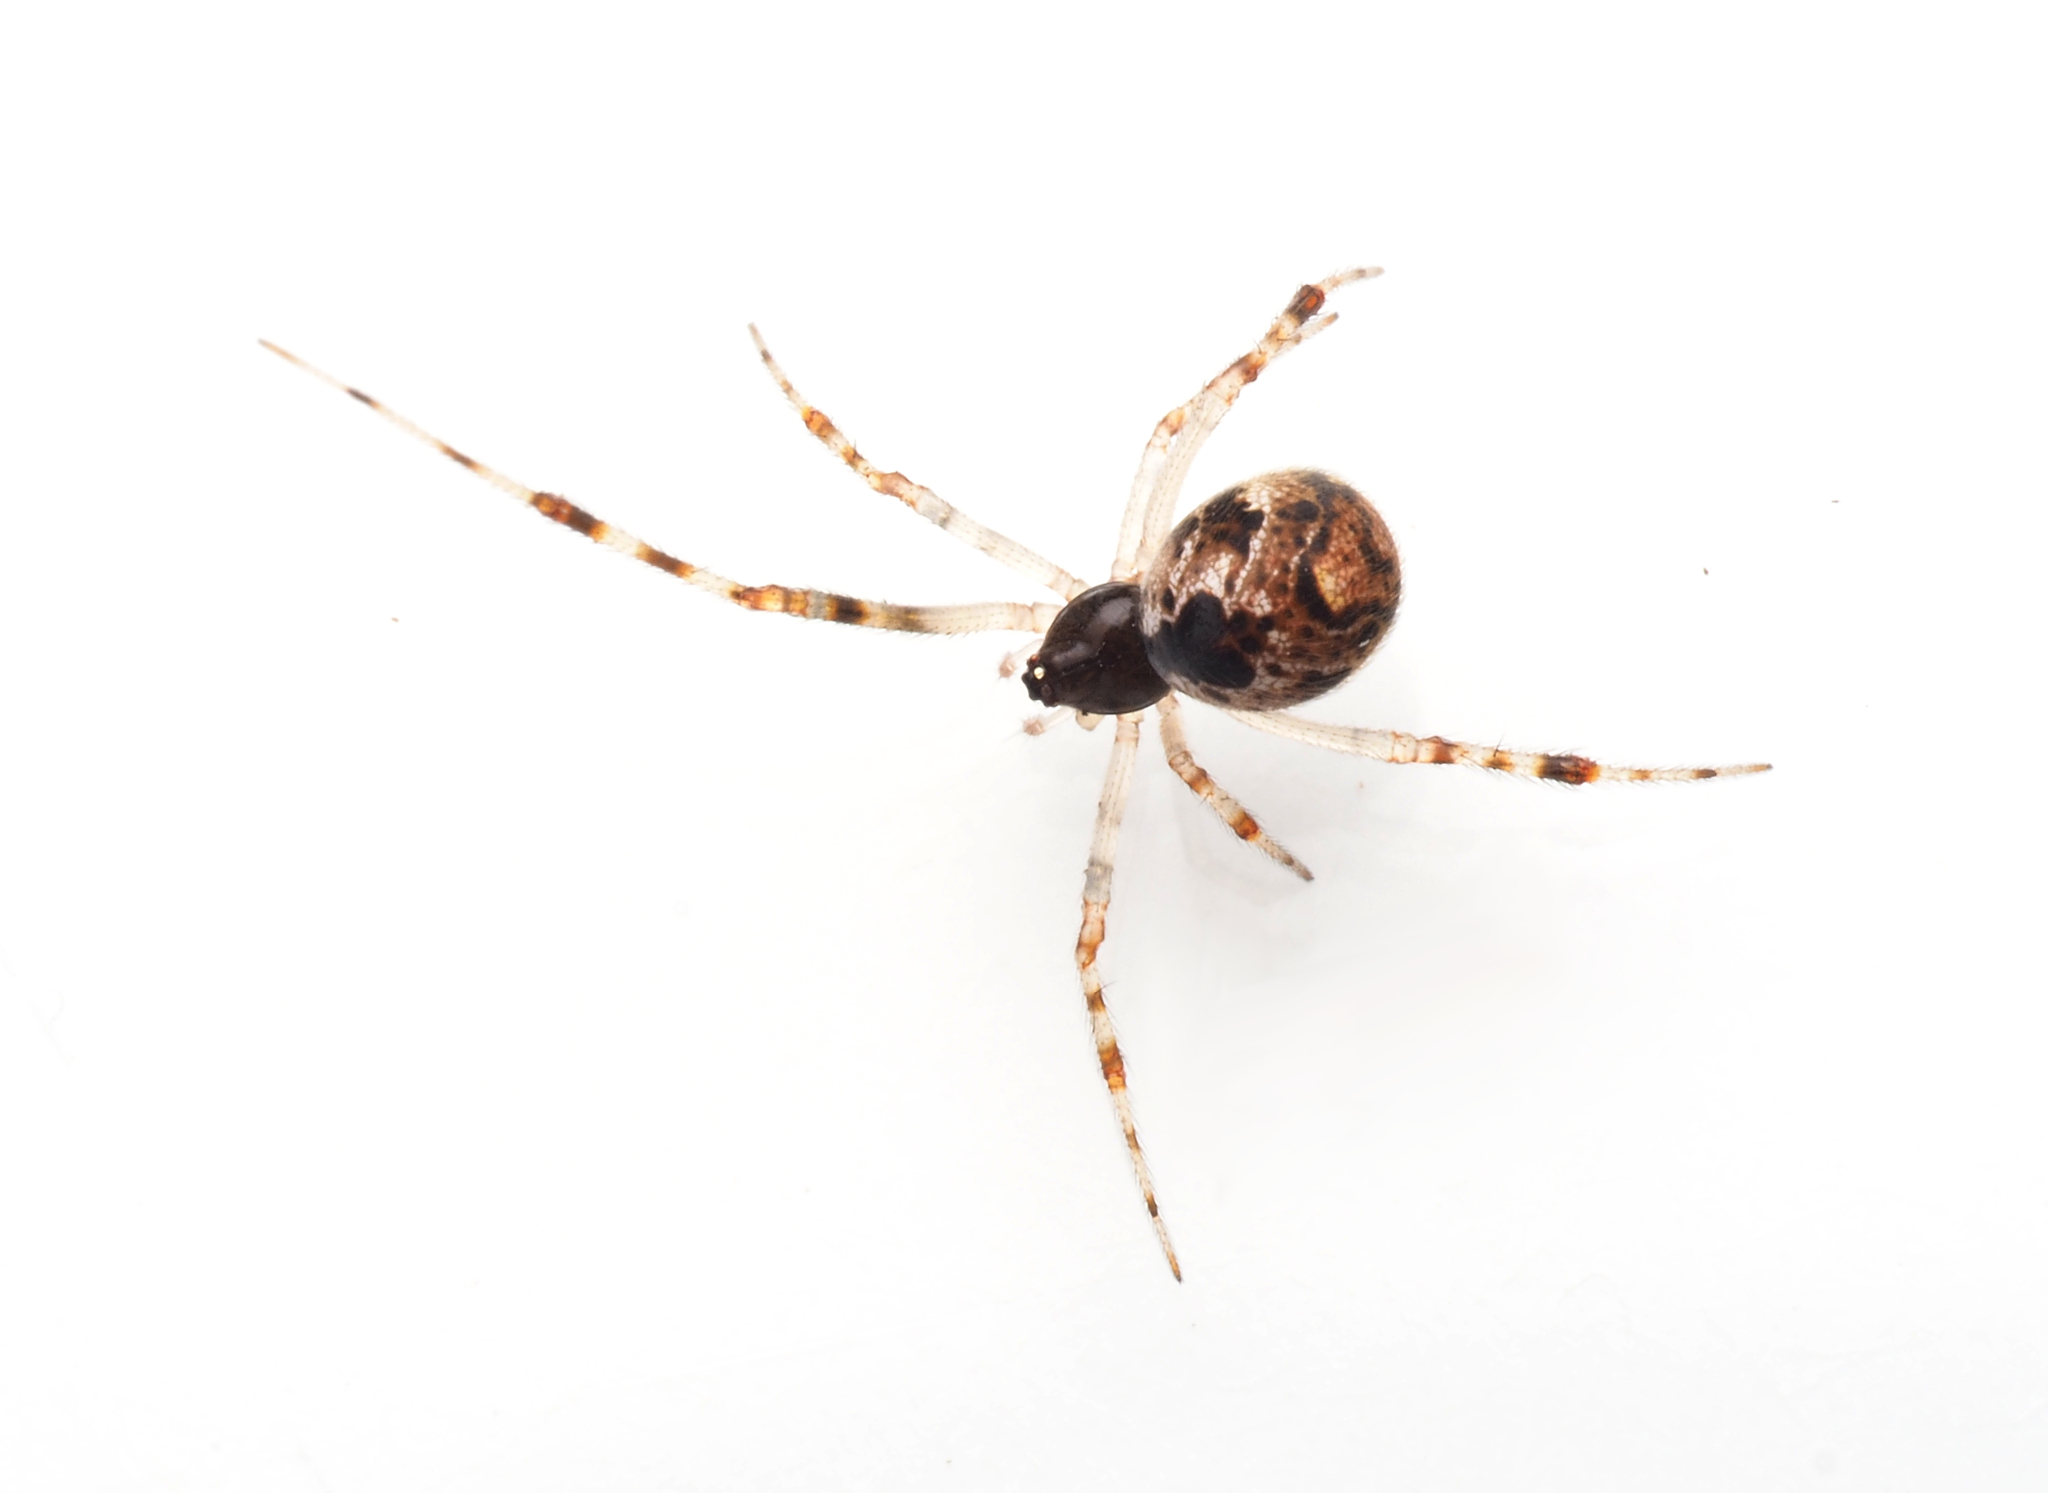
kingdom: Animalia
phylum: Arthropoda
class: Arachnida
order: Araneae
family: Theridiidae
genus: Theridion
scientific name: Theridion
